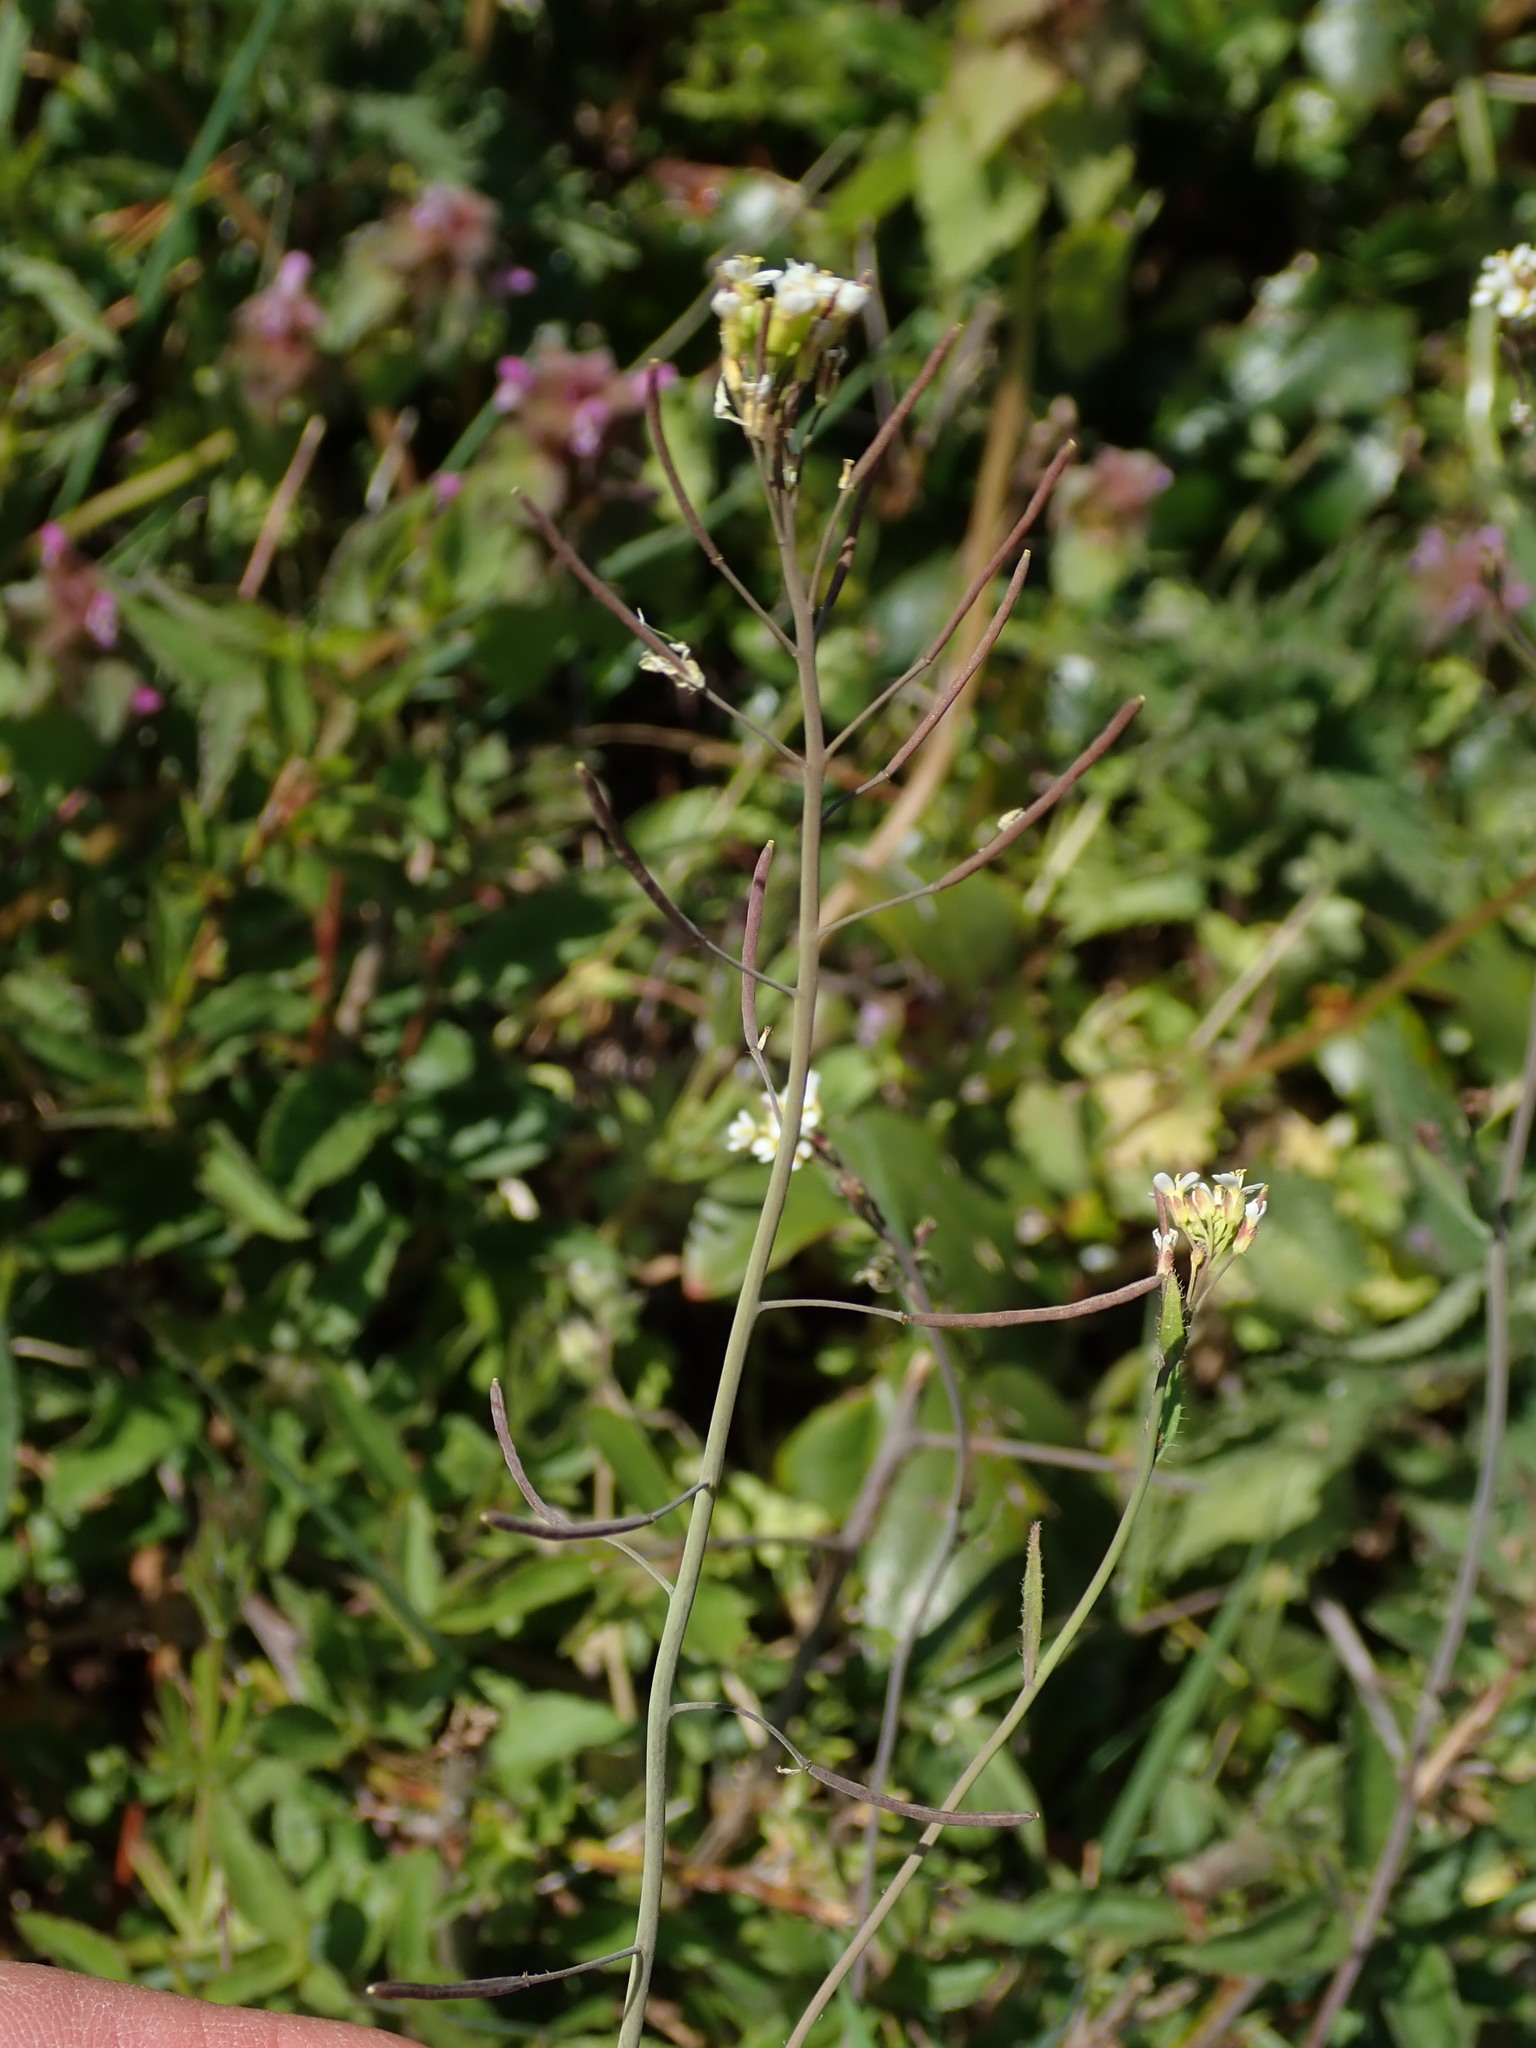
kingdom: Plantae
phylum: Tracheophyta
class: Magnoliopsida
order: Brassicales
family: Brassicaceae
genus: Arabidopsis
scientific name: Arabidopsis thaliana
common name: Thale cress
